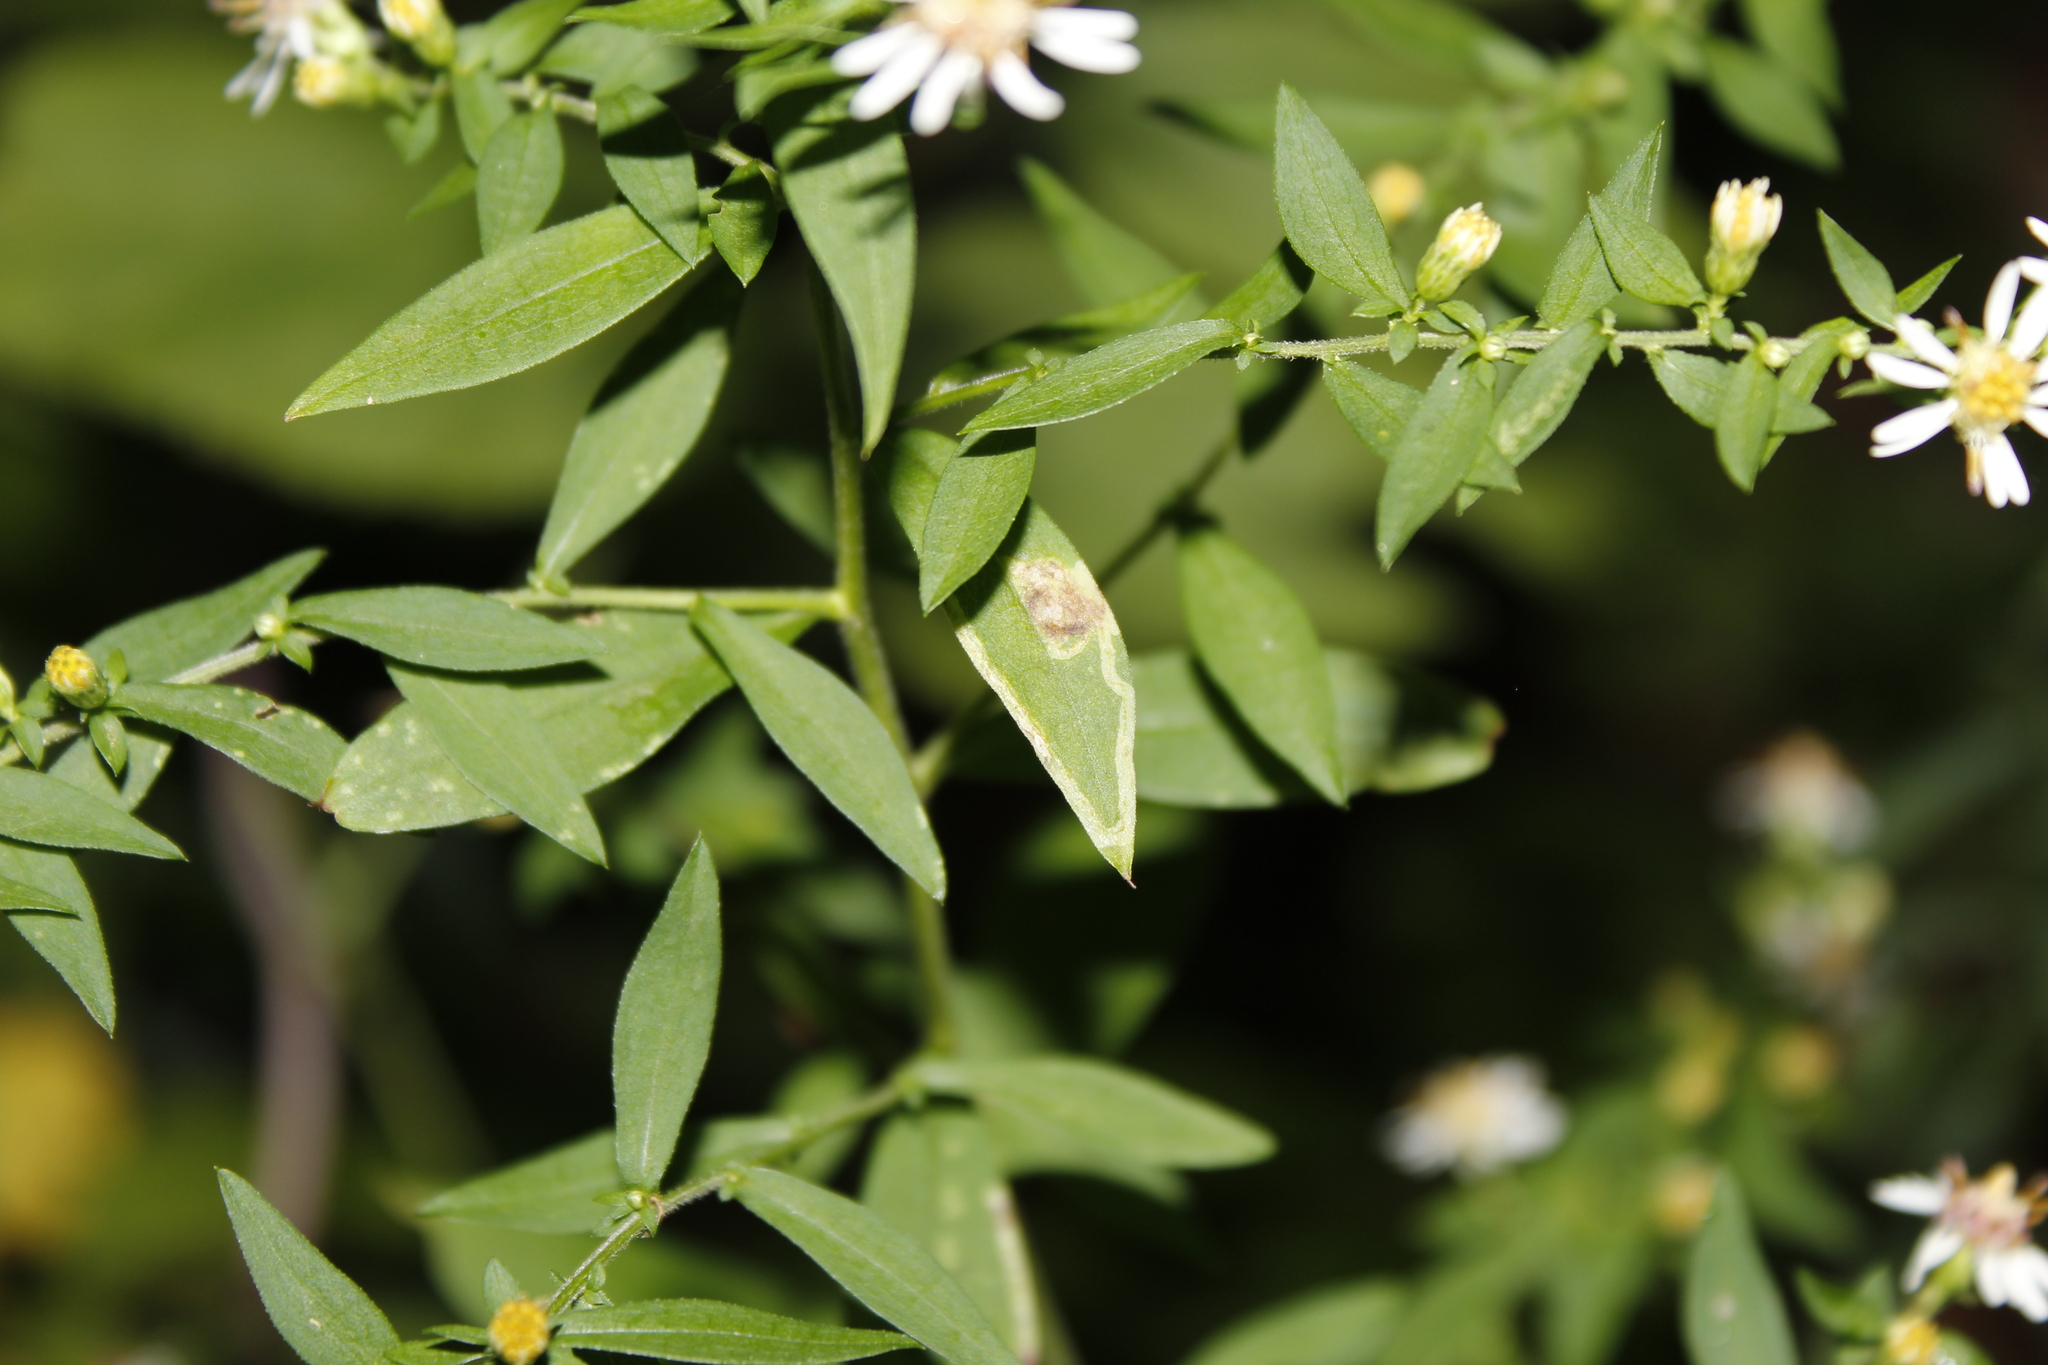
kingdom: Animalia
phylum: Arthropoda
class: Insecta
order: Diptera
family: Agromyzidae
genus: Liriomyza
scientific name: Liriomyza eupatorii
